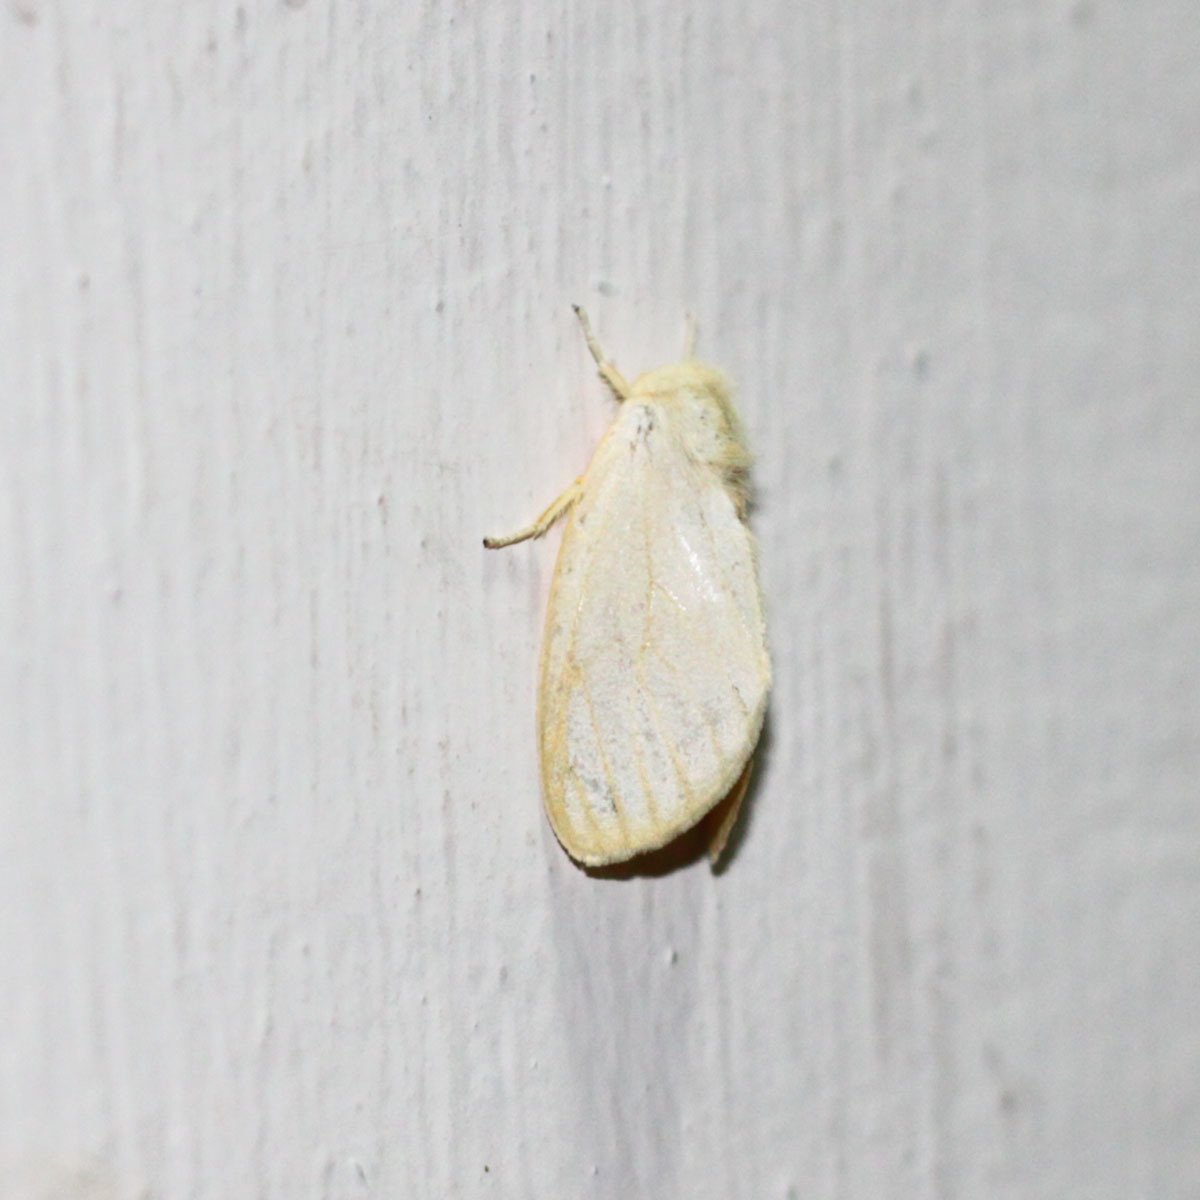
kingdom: Animalia
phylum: Arthropoda
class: Insecta
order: Lepidoptera
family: Erebidae
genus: Perina
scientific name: Perina nuda
